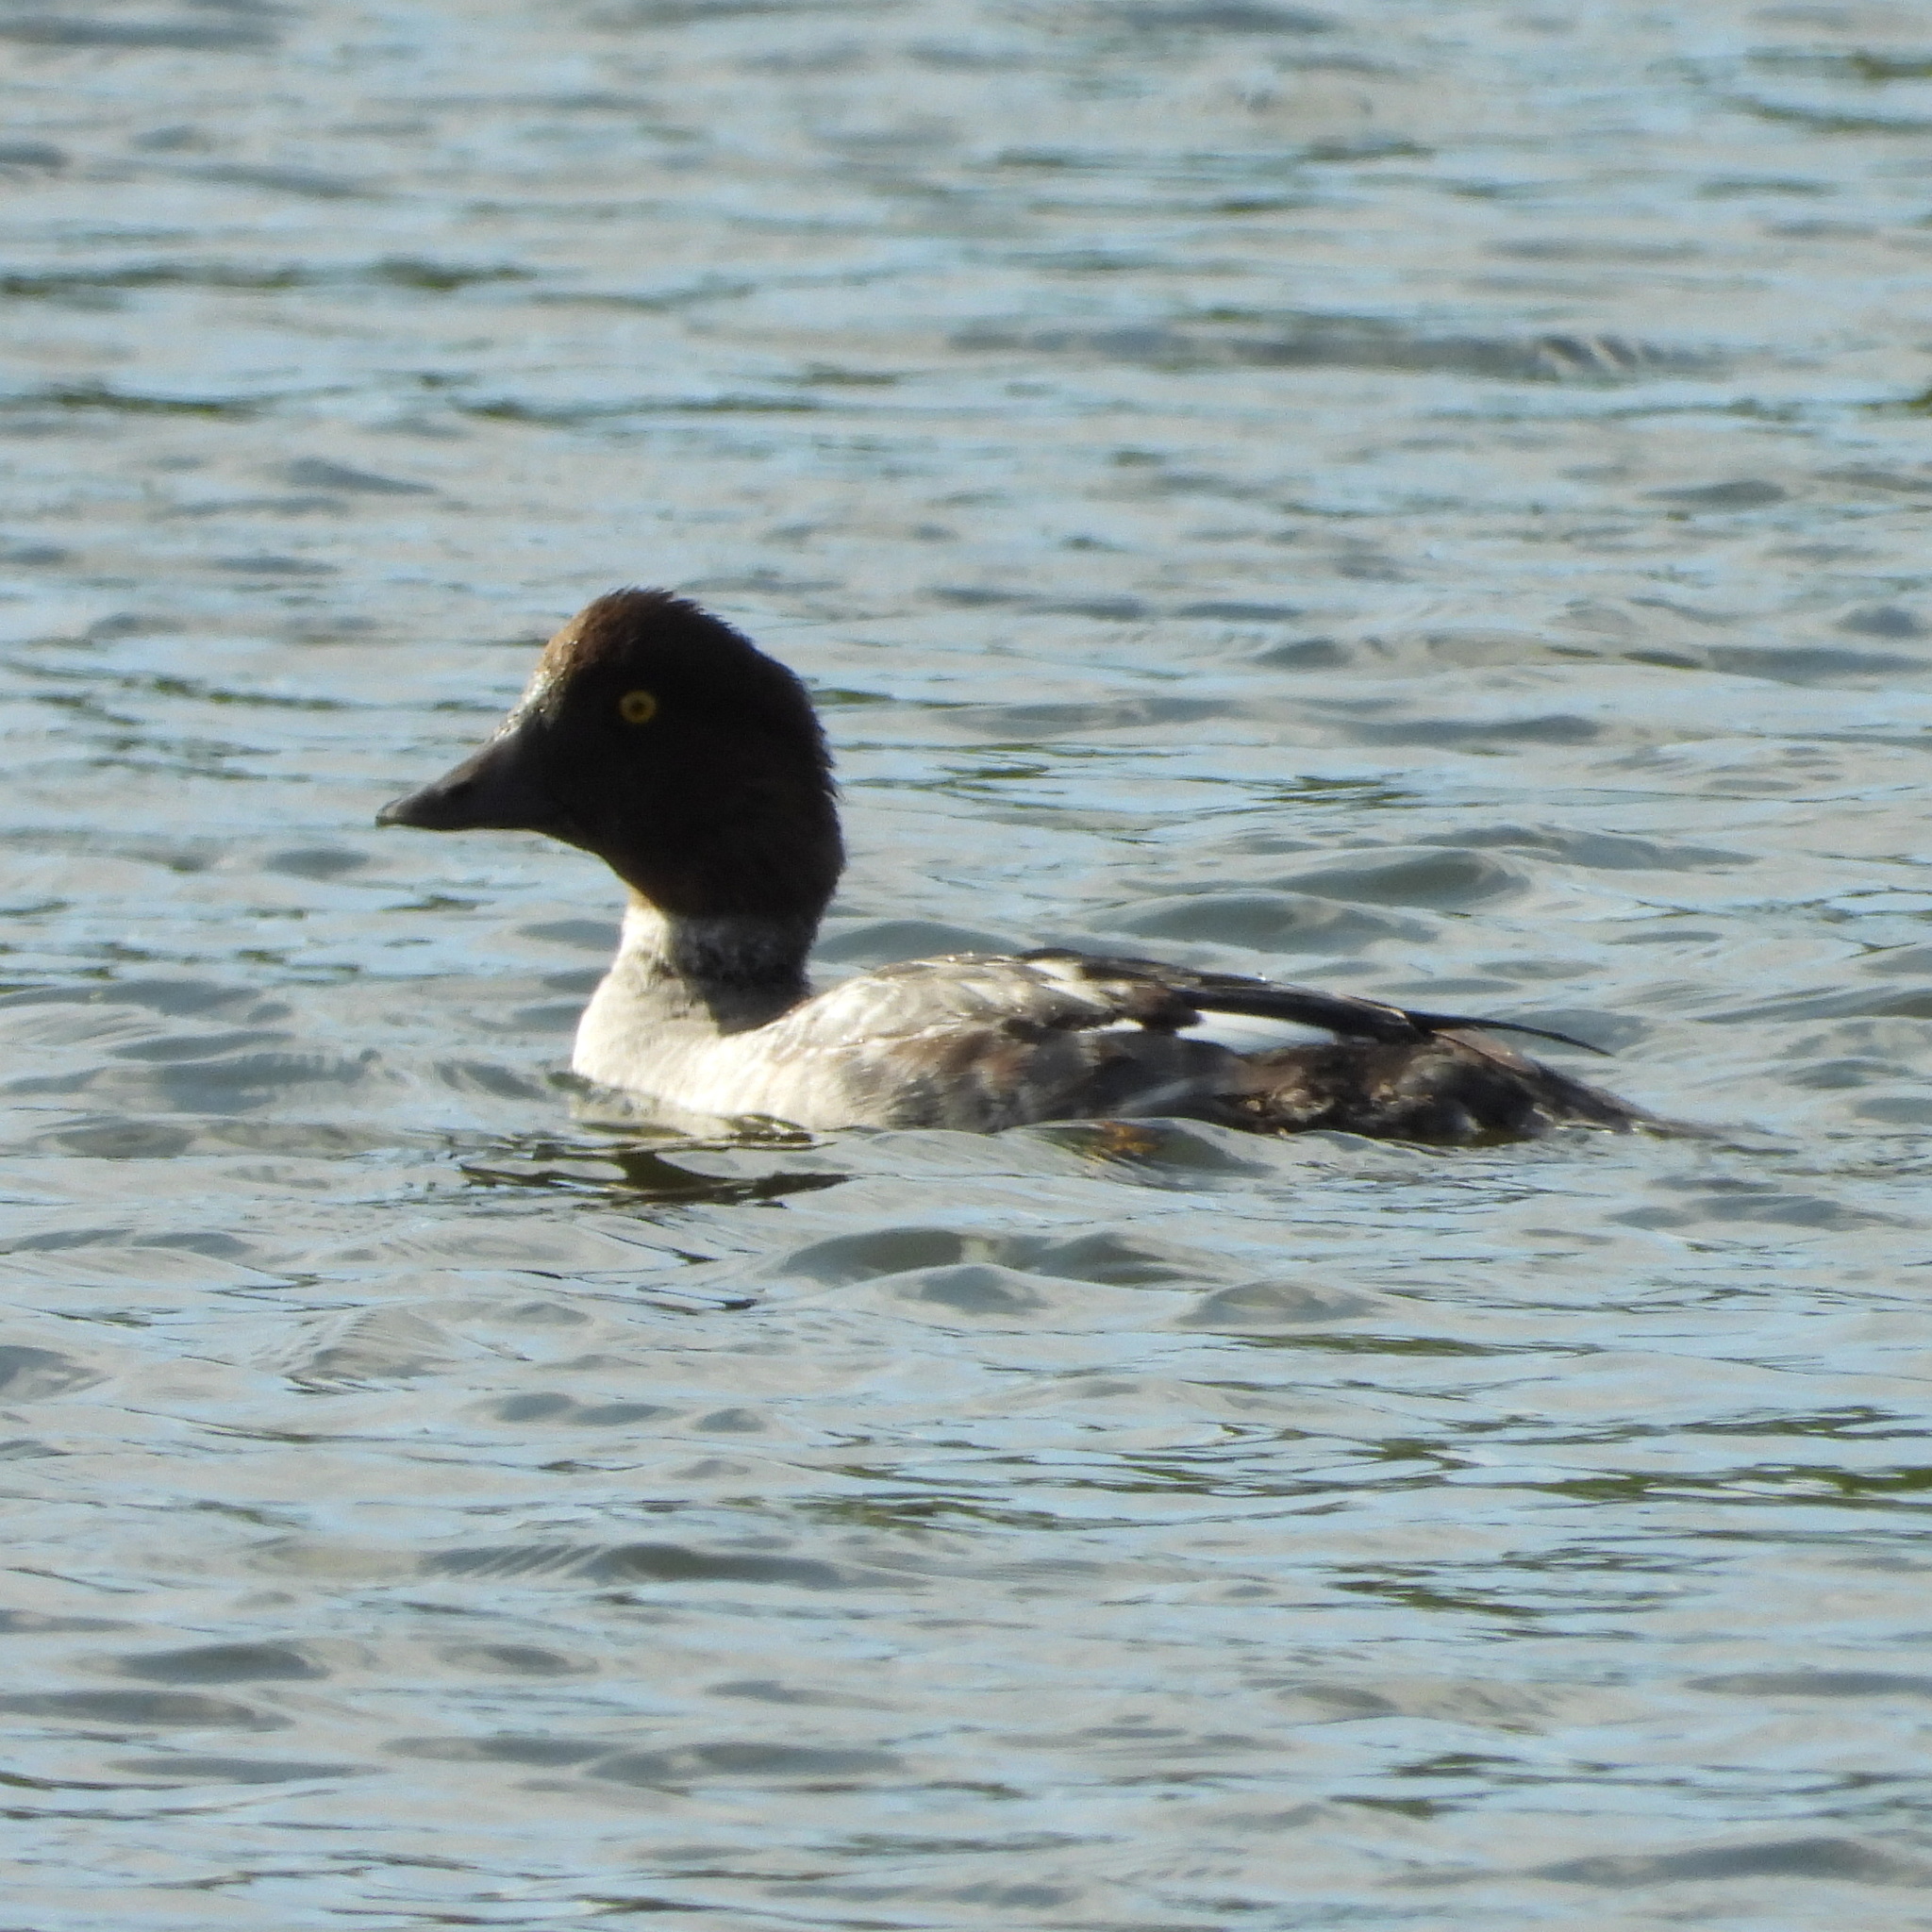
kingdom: Animalia
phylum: Chordata
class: Aves
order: Anseriformes
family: Anatidae
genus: Bucephala
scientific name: Bucephala clangula
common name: Common goldeneye
